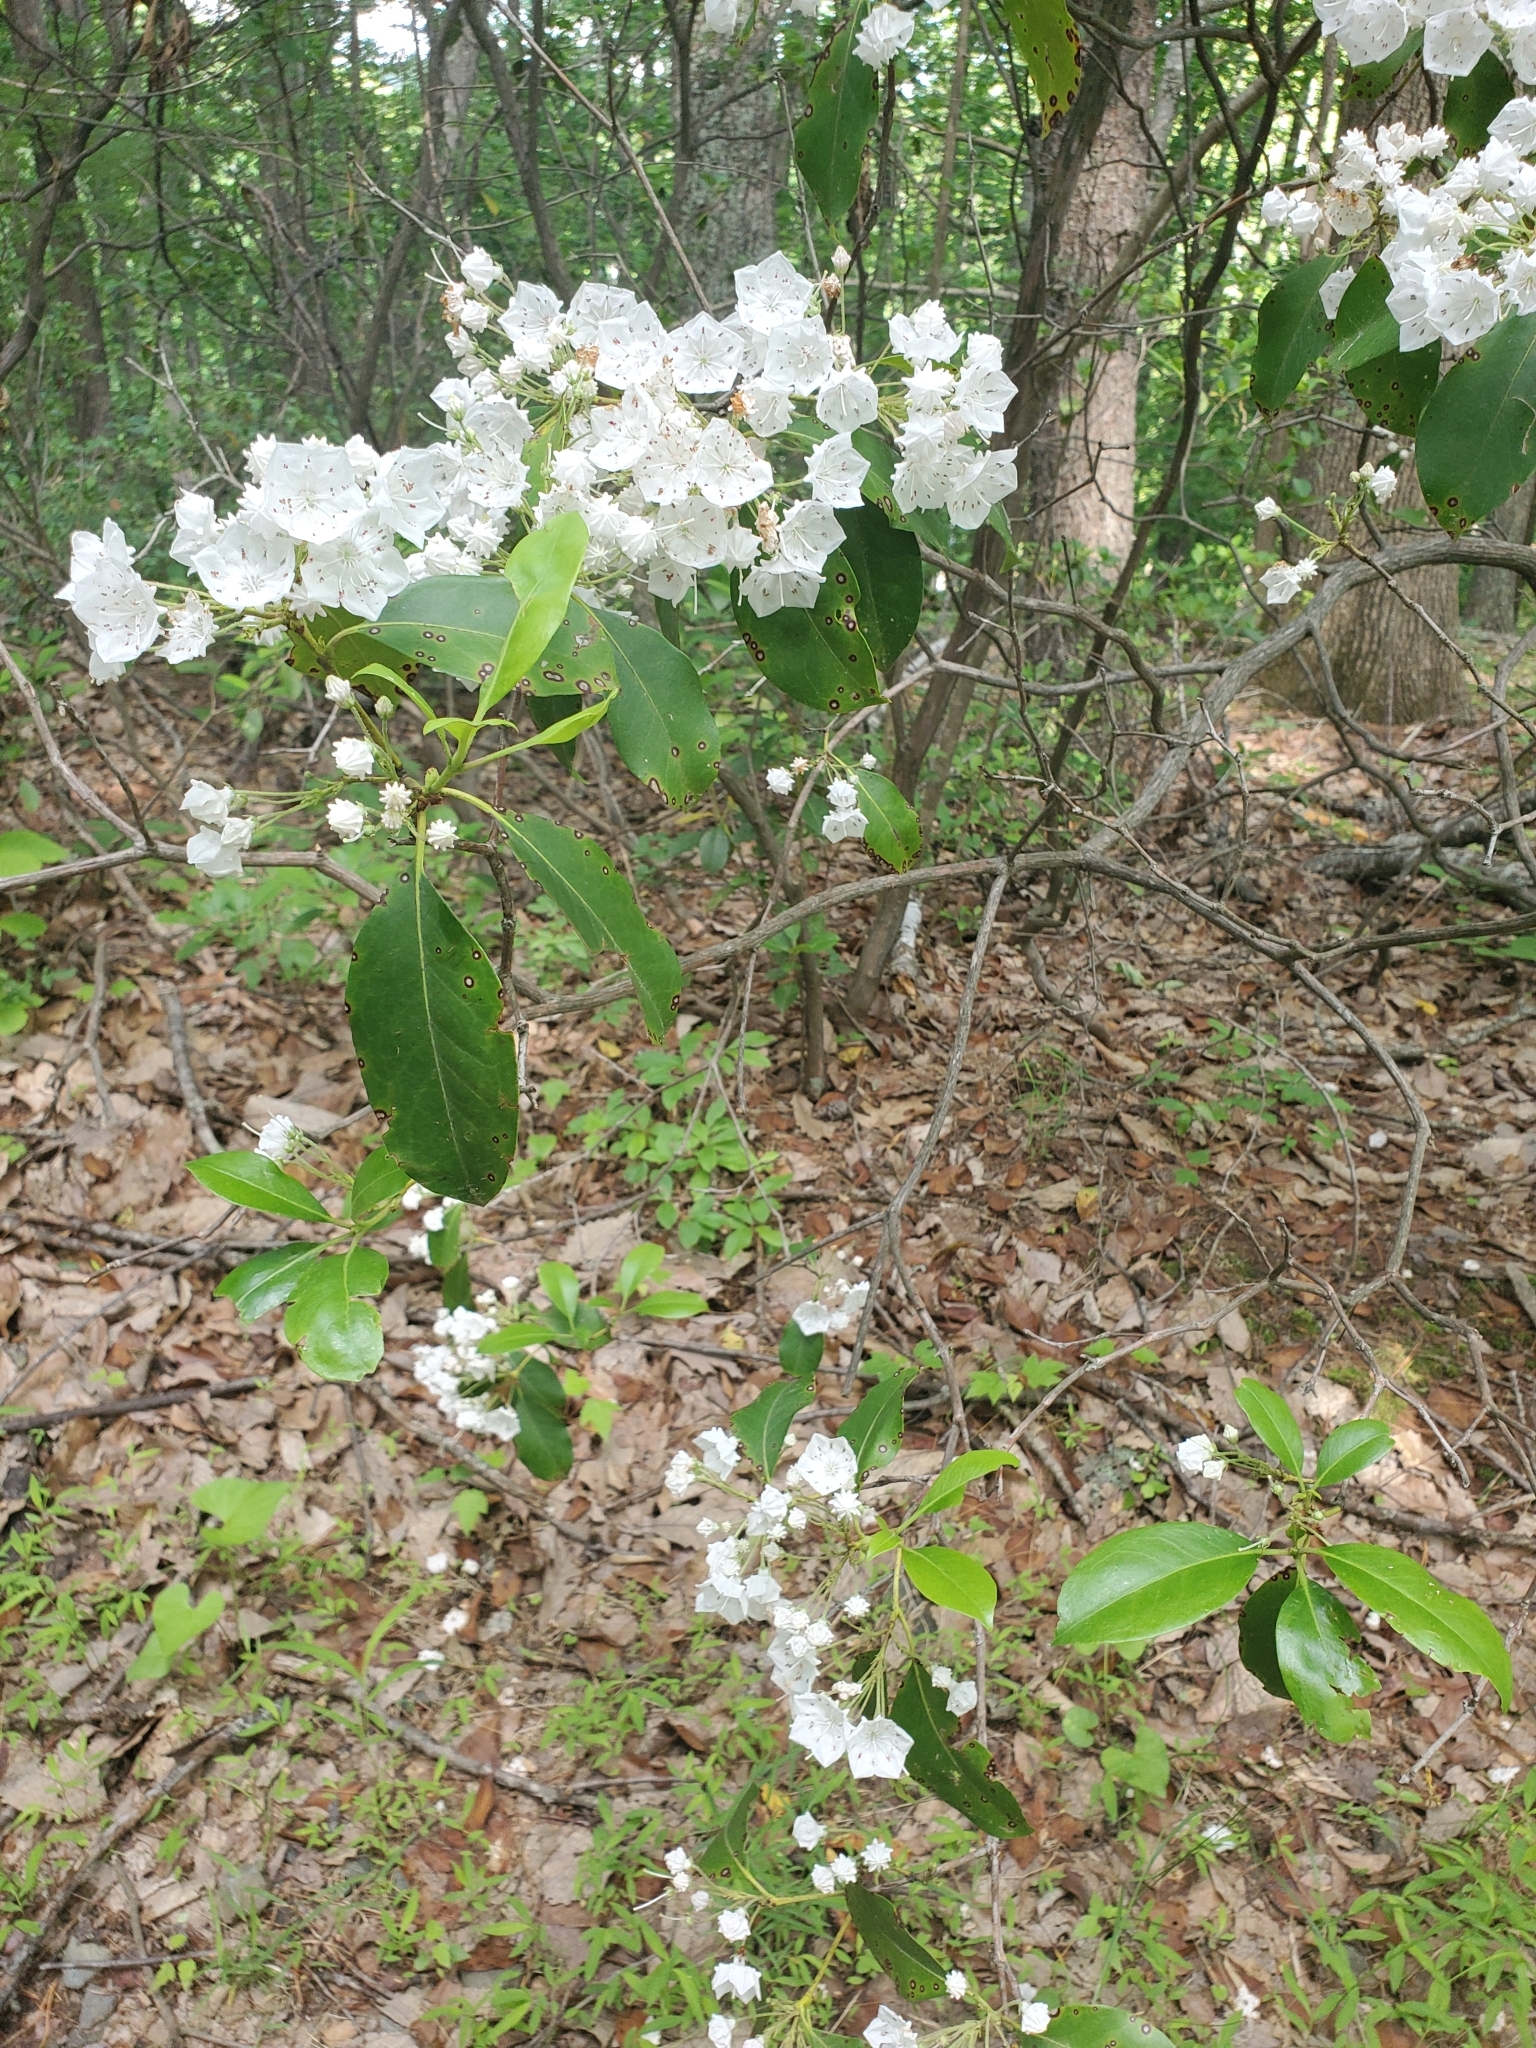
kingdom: Plantae
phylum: Tracheophyta
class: Magnoliopsida
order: Ericales
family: Ericaceae
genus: Kalmia
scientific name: Kalmia latifolia
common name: Mountain-laurel
